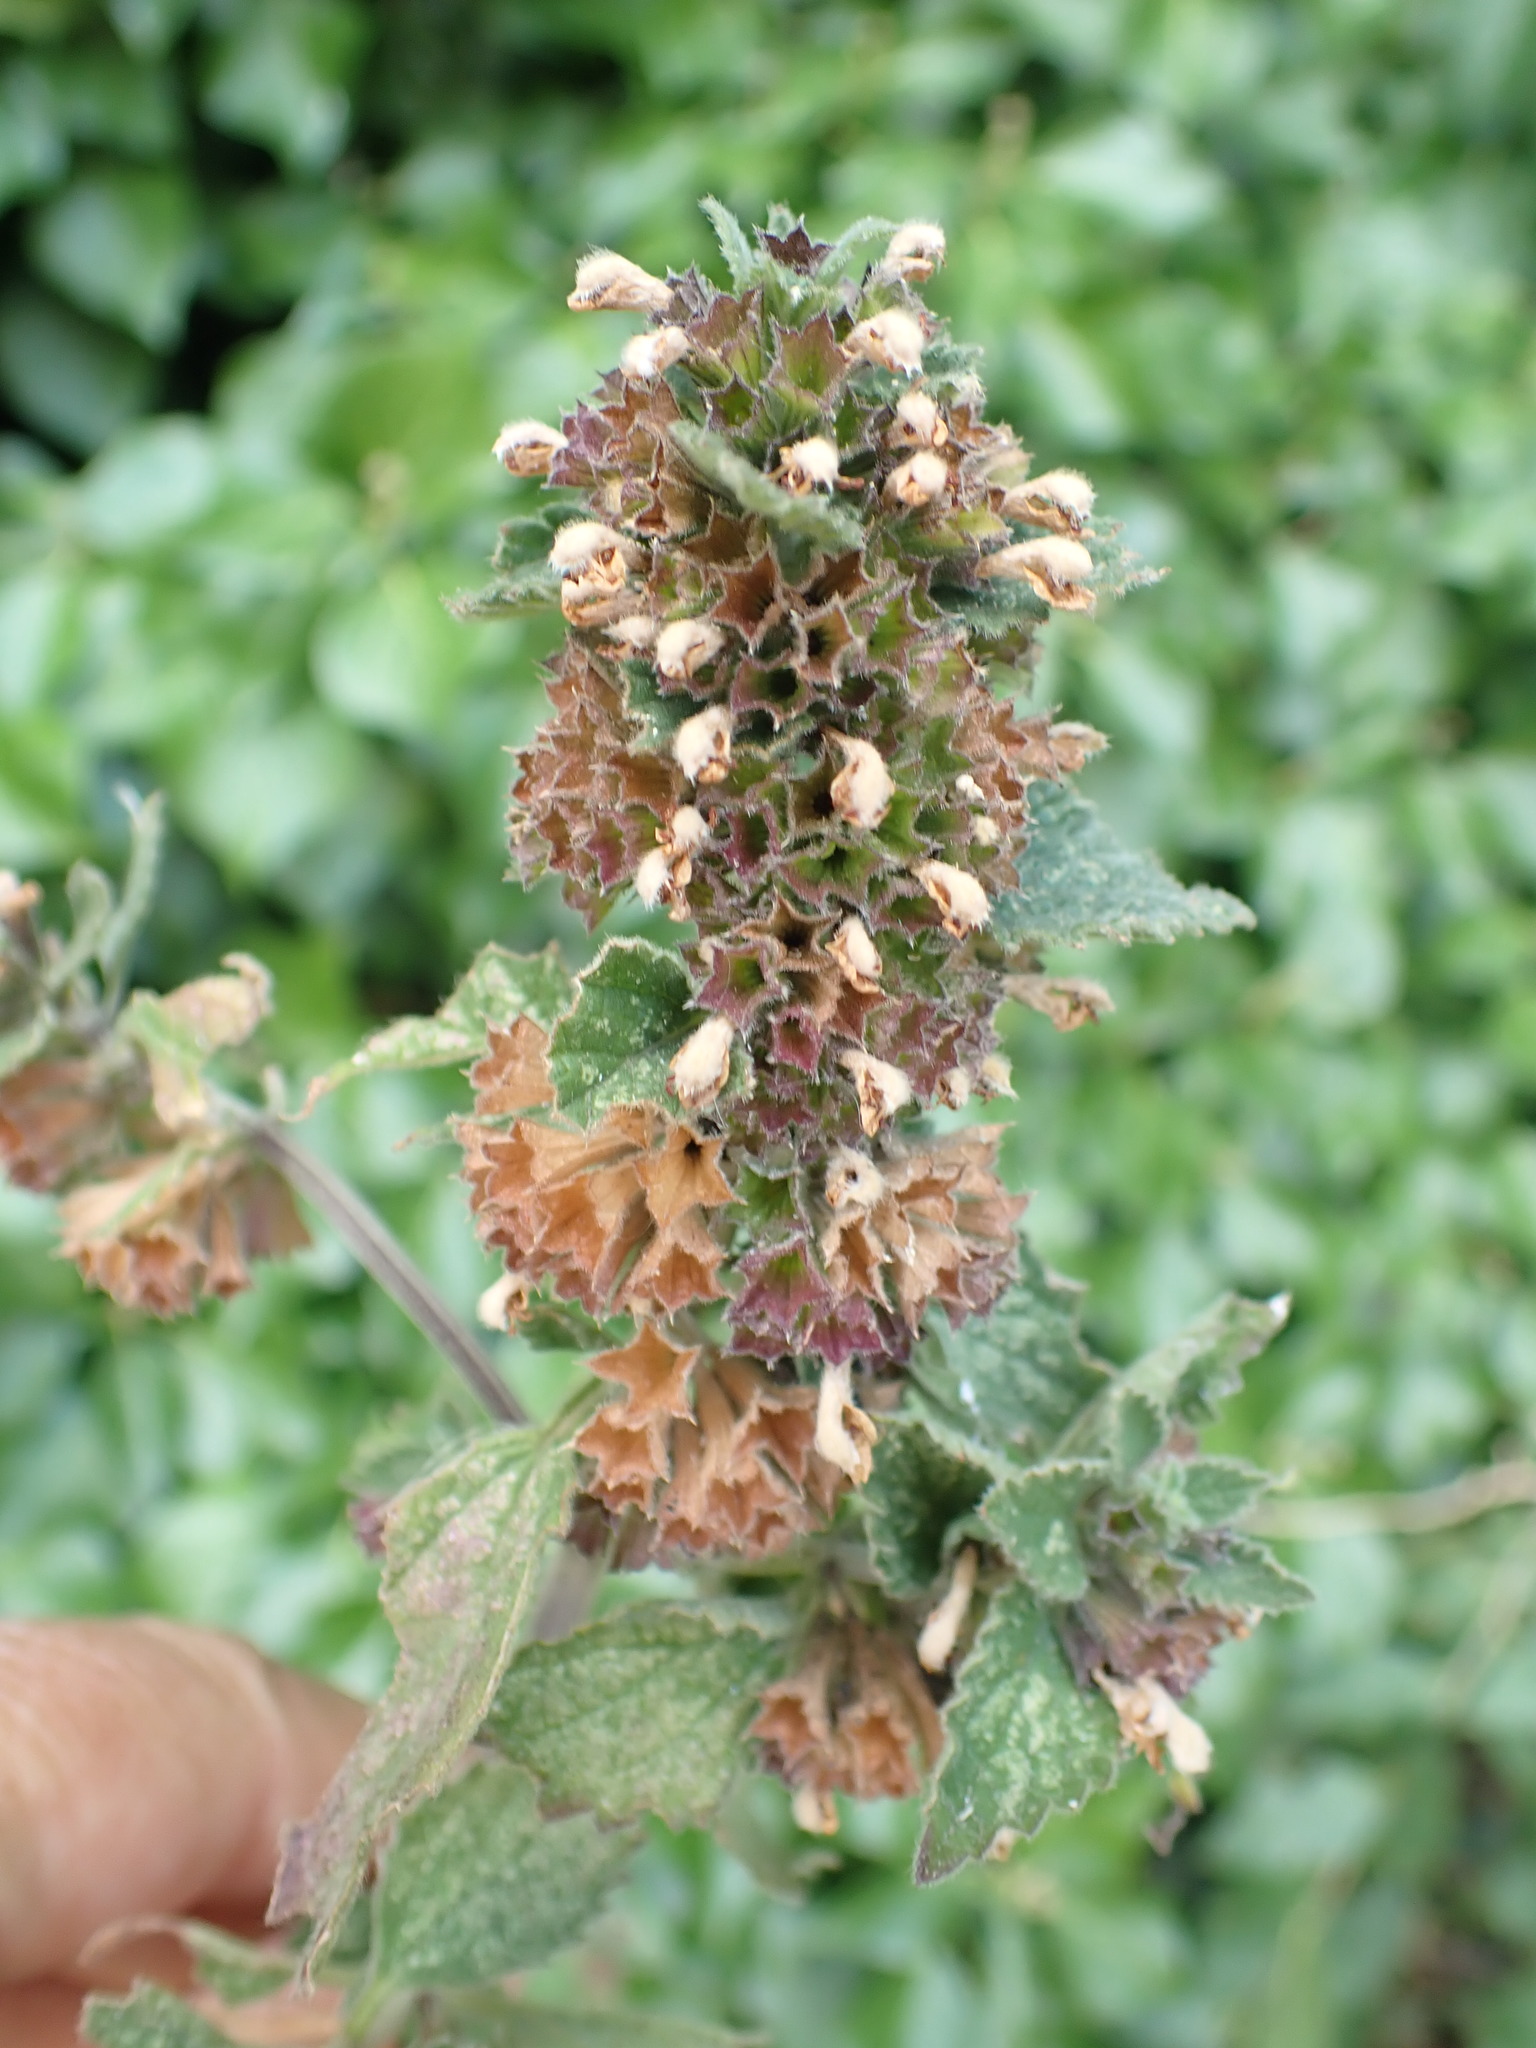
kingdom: Plantae
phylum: Tracheophyta
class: Magnoliopsida
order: Lamiales
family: Lamiaceae
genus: Ballota
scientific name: Ballota nigra
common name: Black horehound
